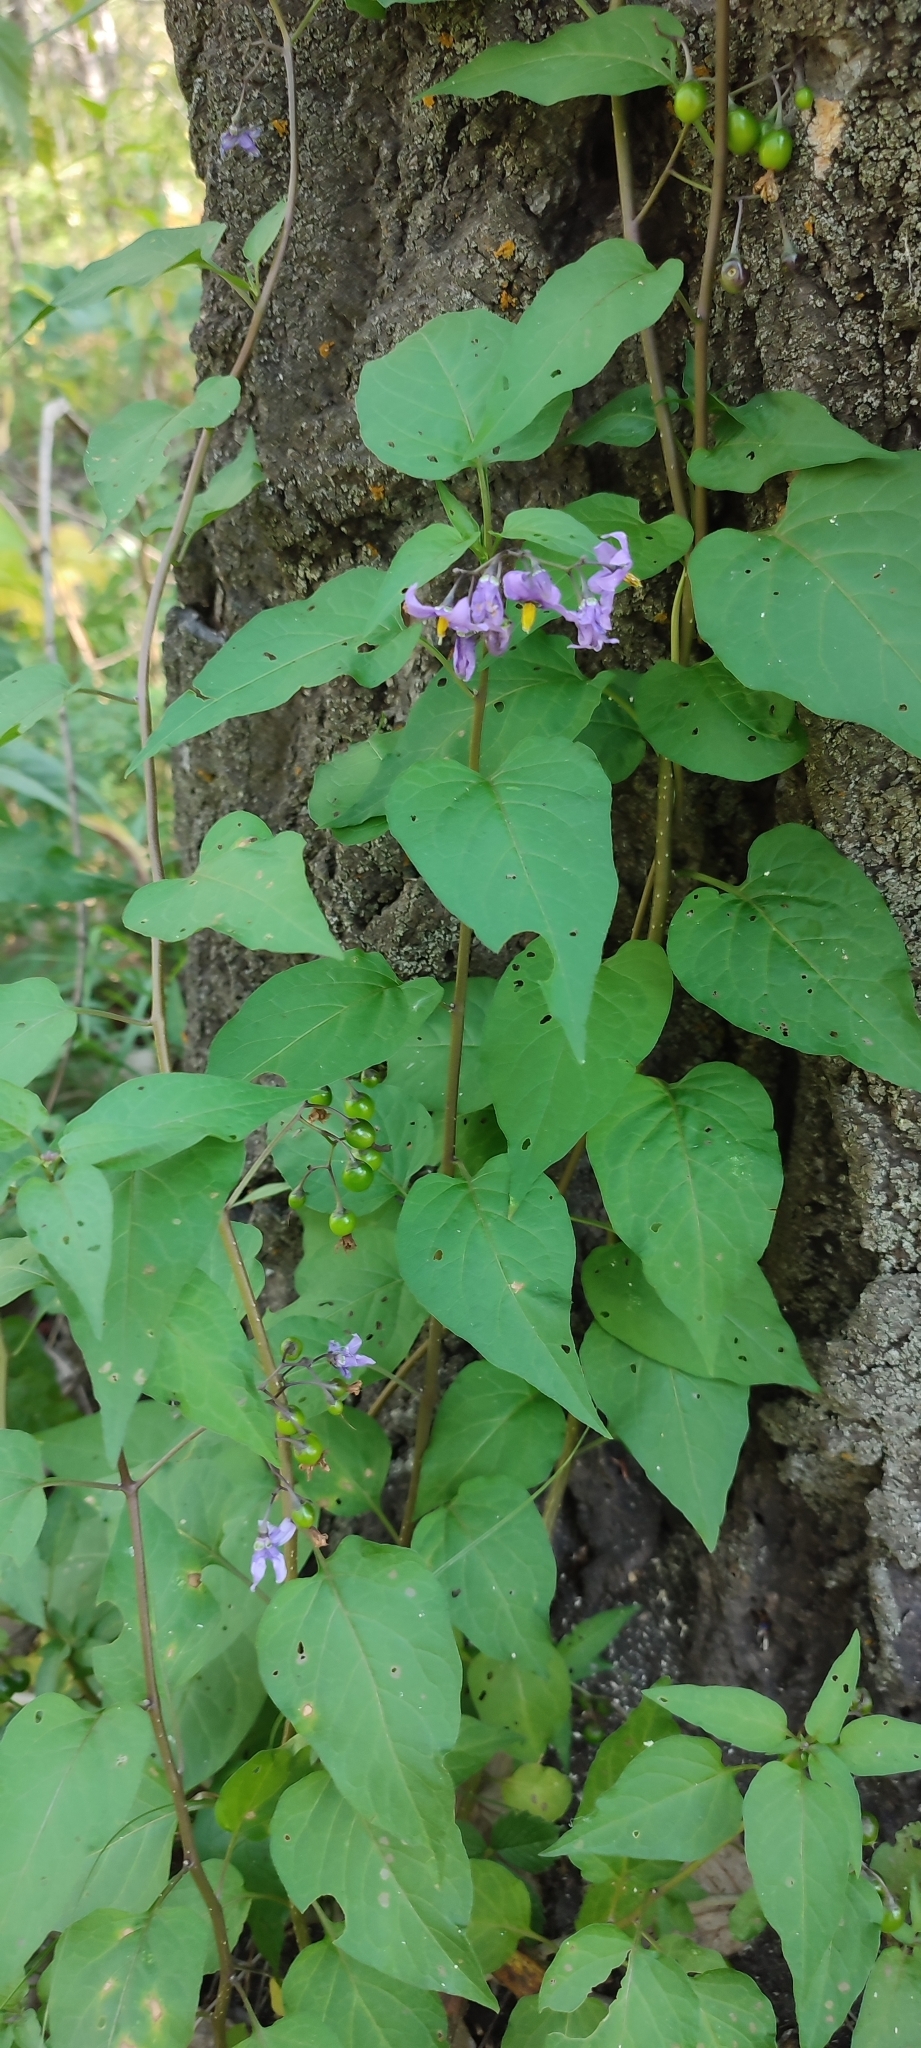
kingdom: Plantae
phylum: Tracheophyta
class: Magnoliopsida
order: Solanales
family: Solanaceae
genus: Solanum
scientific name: Solanum dulcamara
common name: Climbing nightshade
